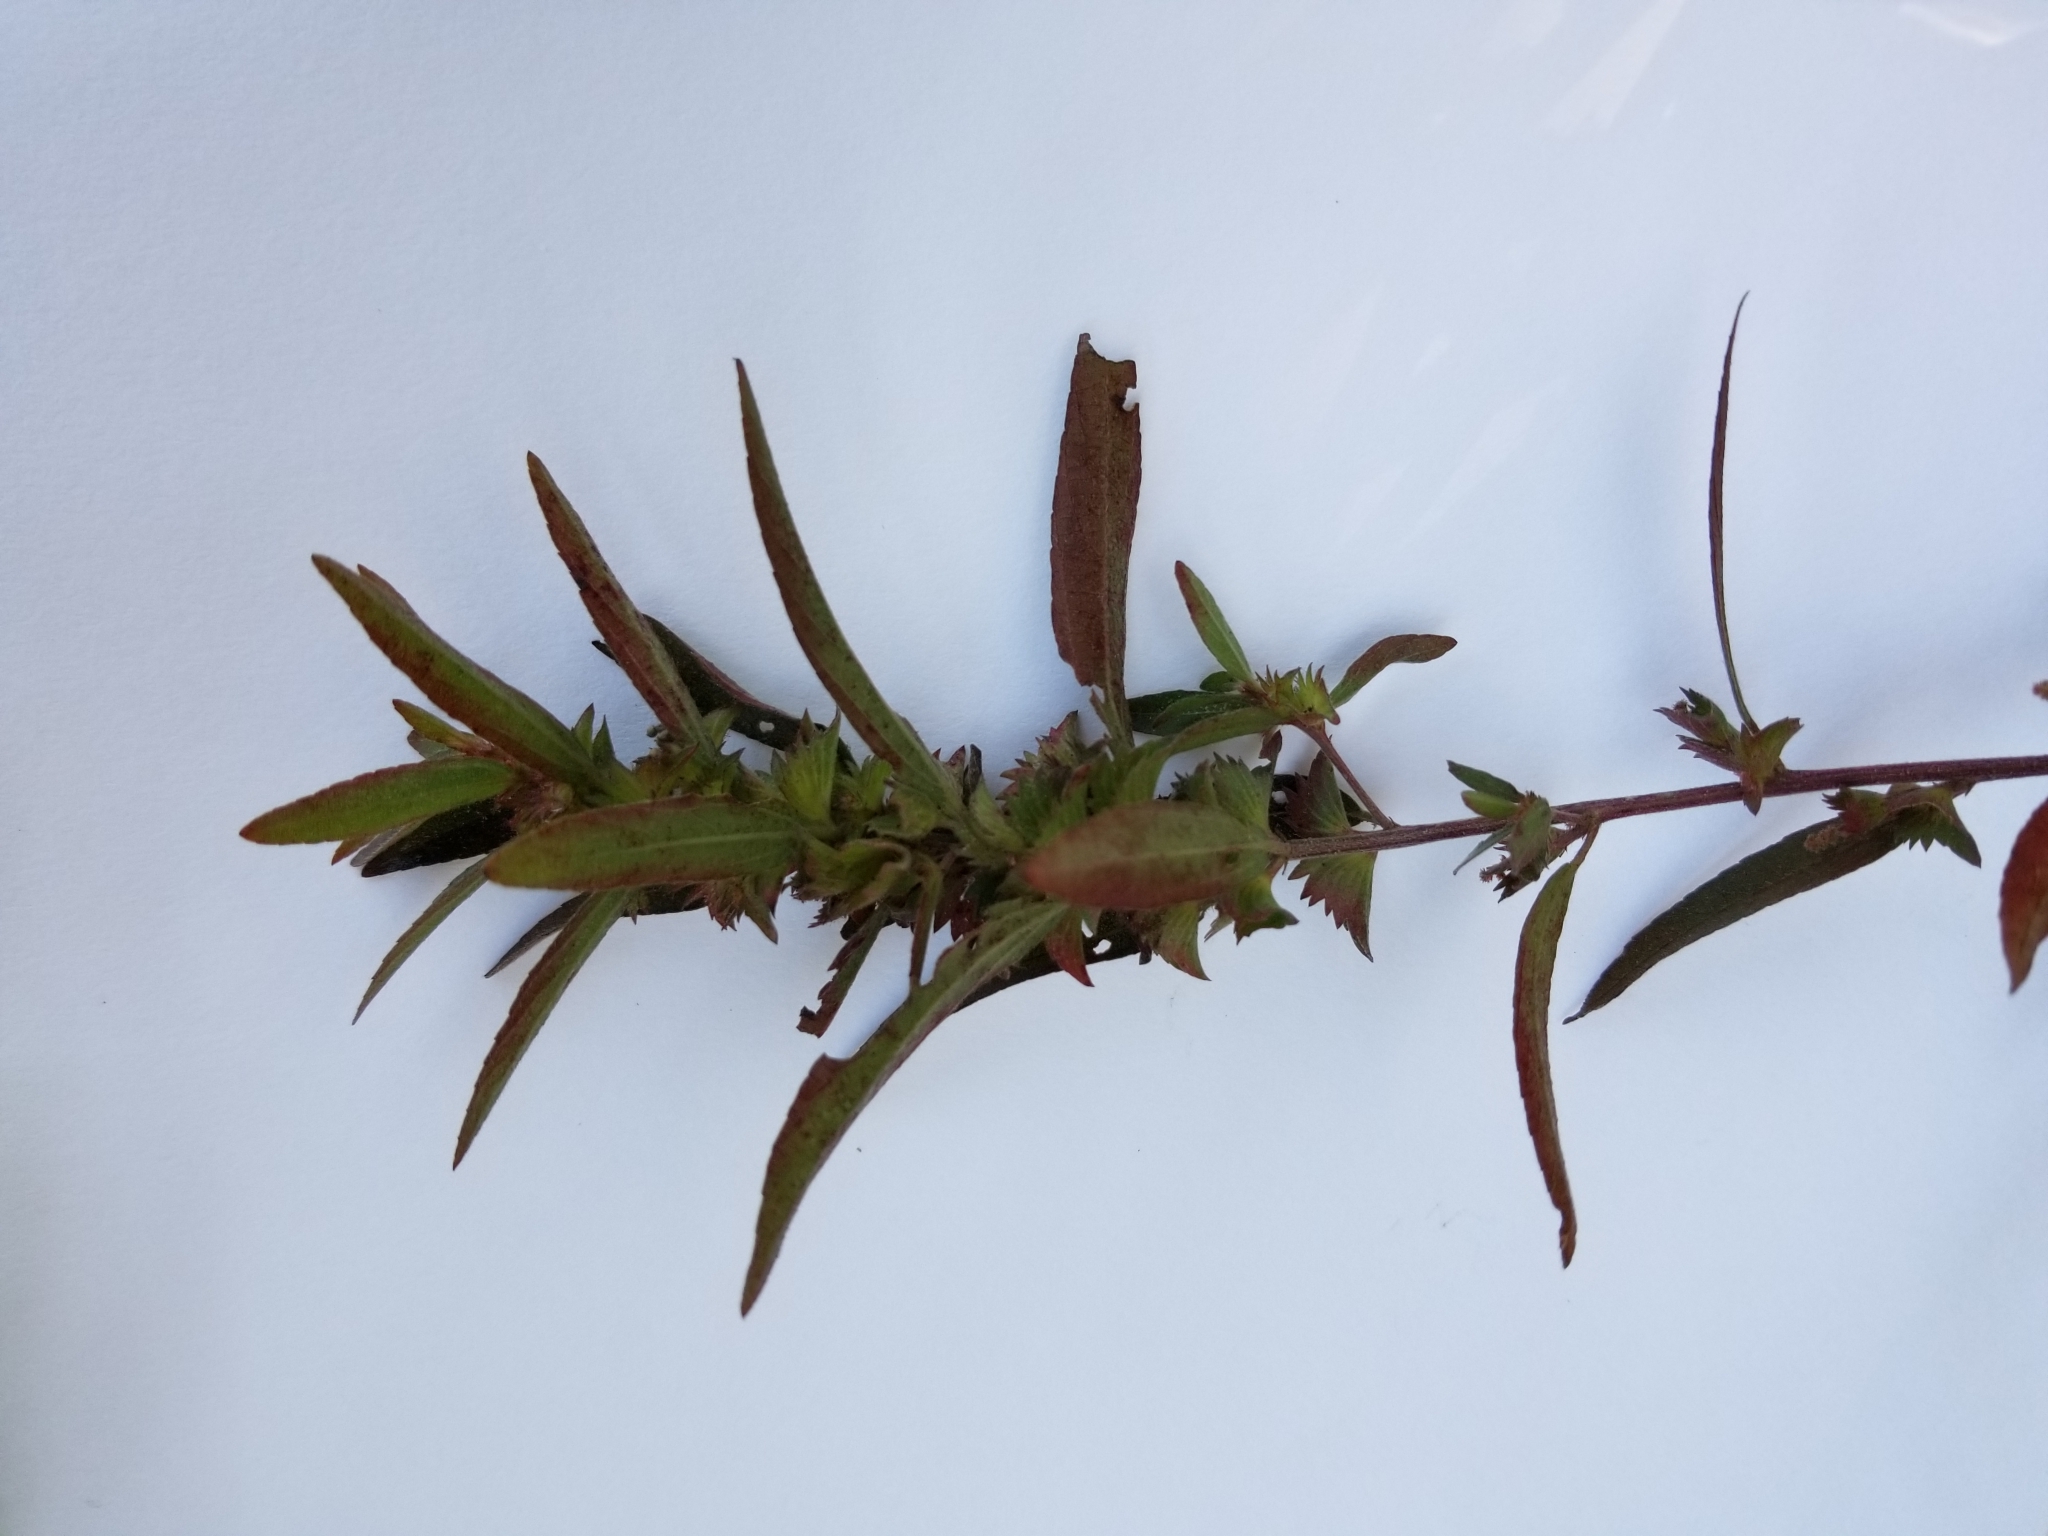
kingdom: Plantae
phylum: Tracheophyta
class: Magnoliopsida
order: Malpighiales
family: Euphorbiaceae
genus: Acalypha
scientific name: Acalypha gracilens
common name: Slender three-seeded mercury
